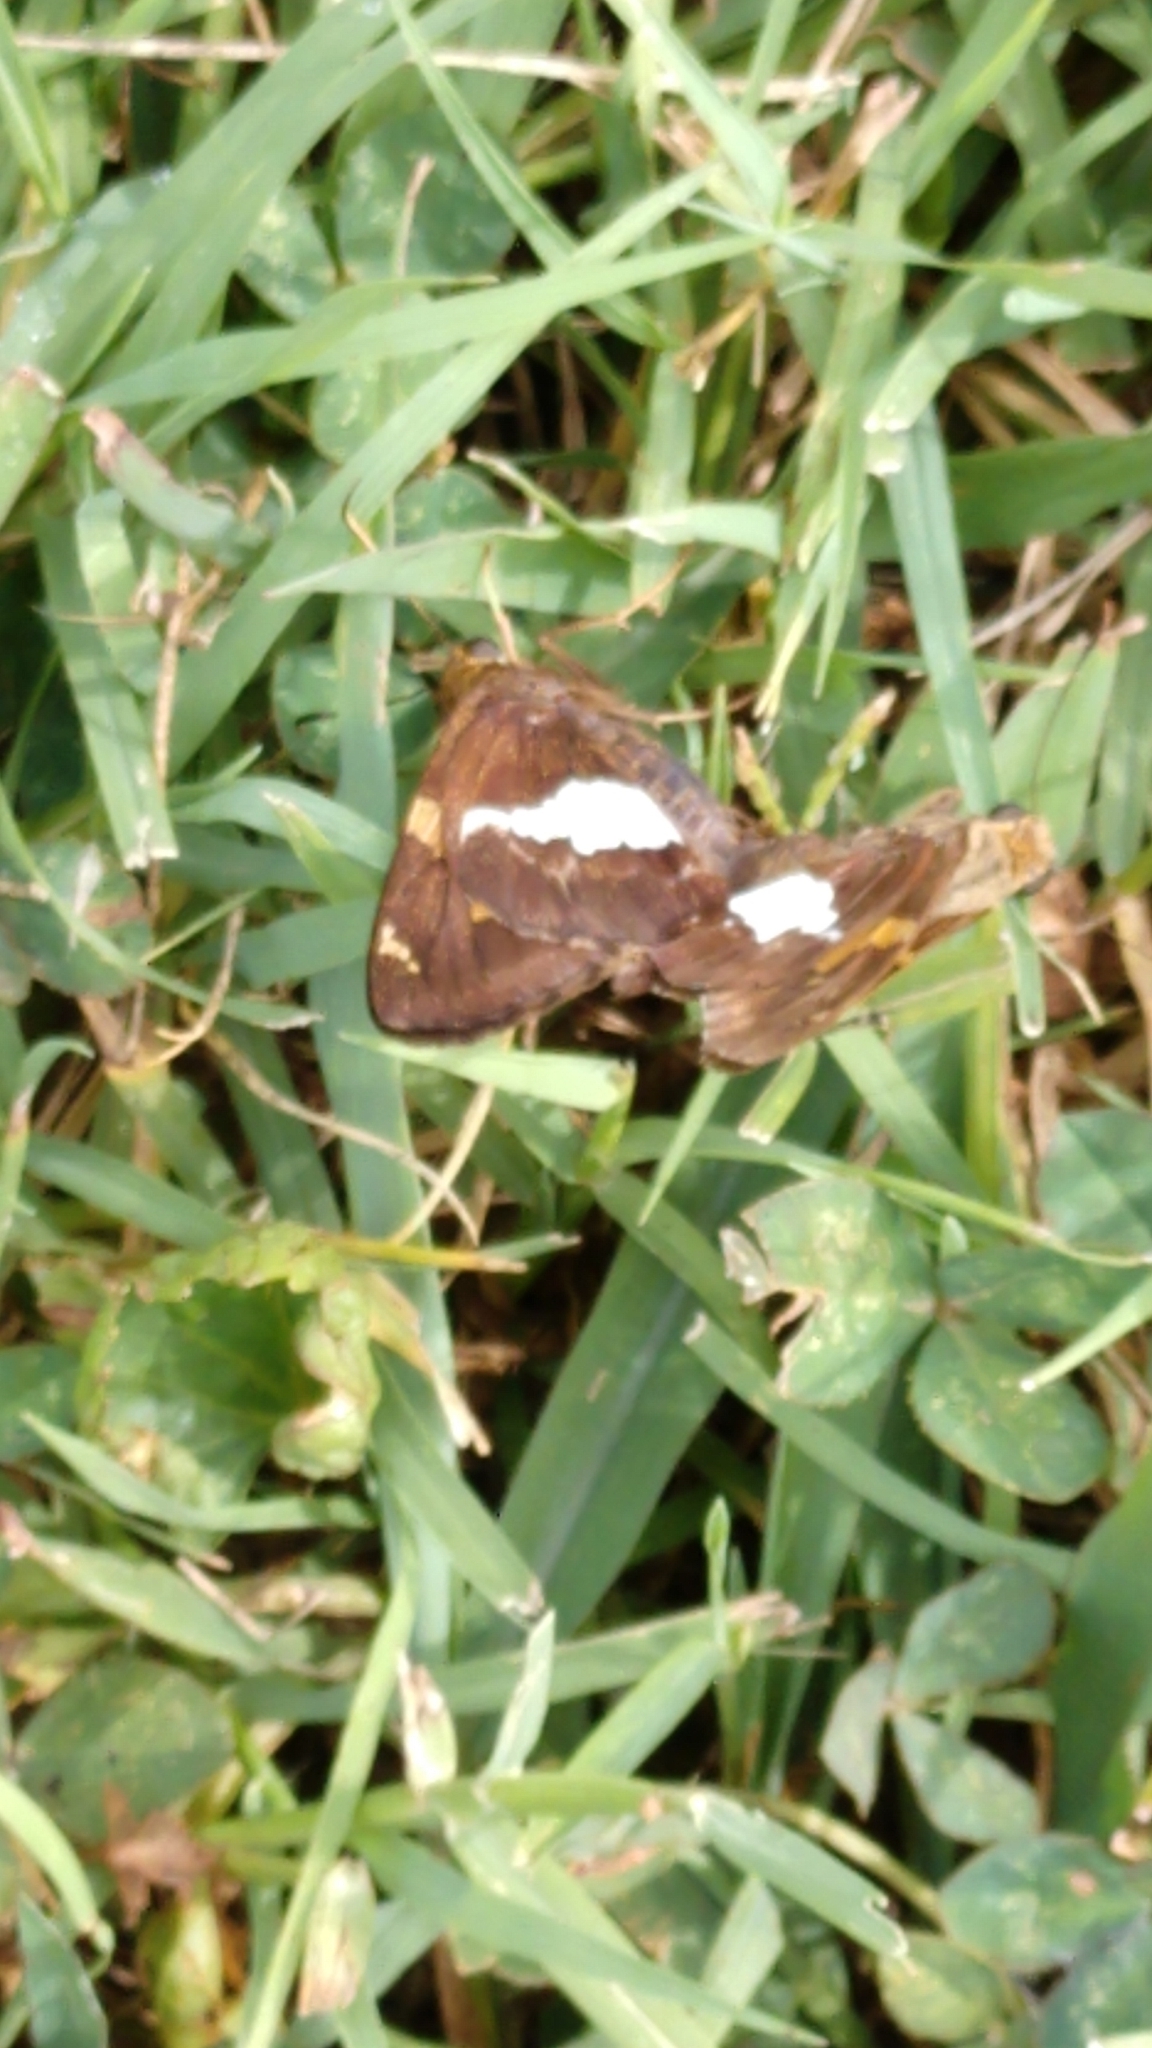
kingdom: Animalia
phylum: Arthropoda
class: Insecta
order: Lepidoptera
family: Hesperiidae
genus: Epargyreus
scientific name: Epargyreus clarus
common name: Silver-spotted skipper
